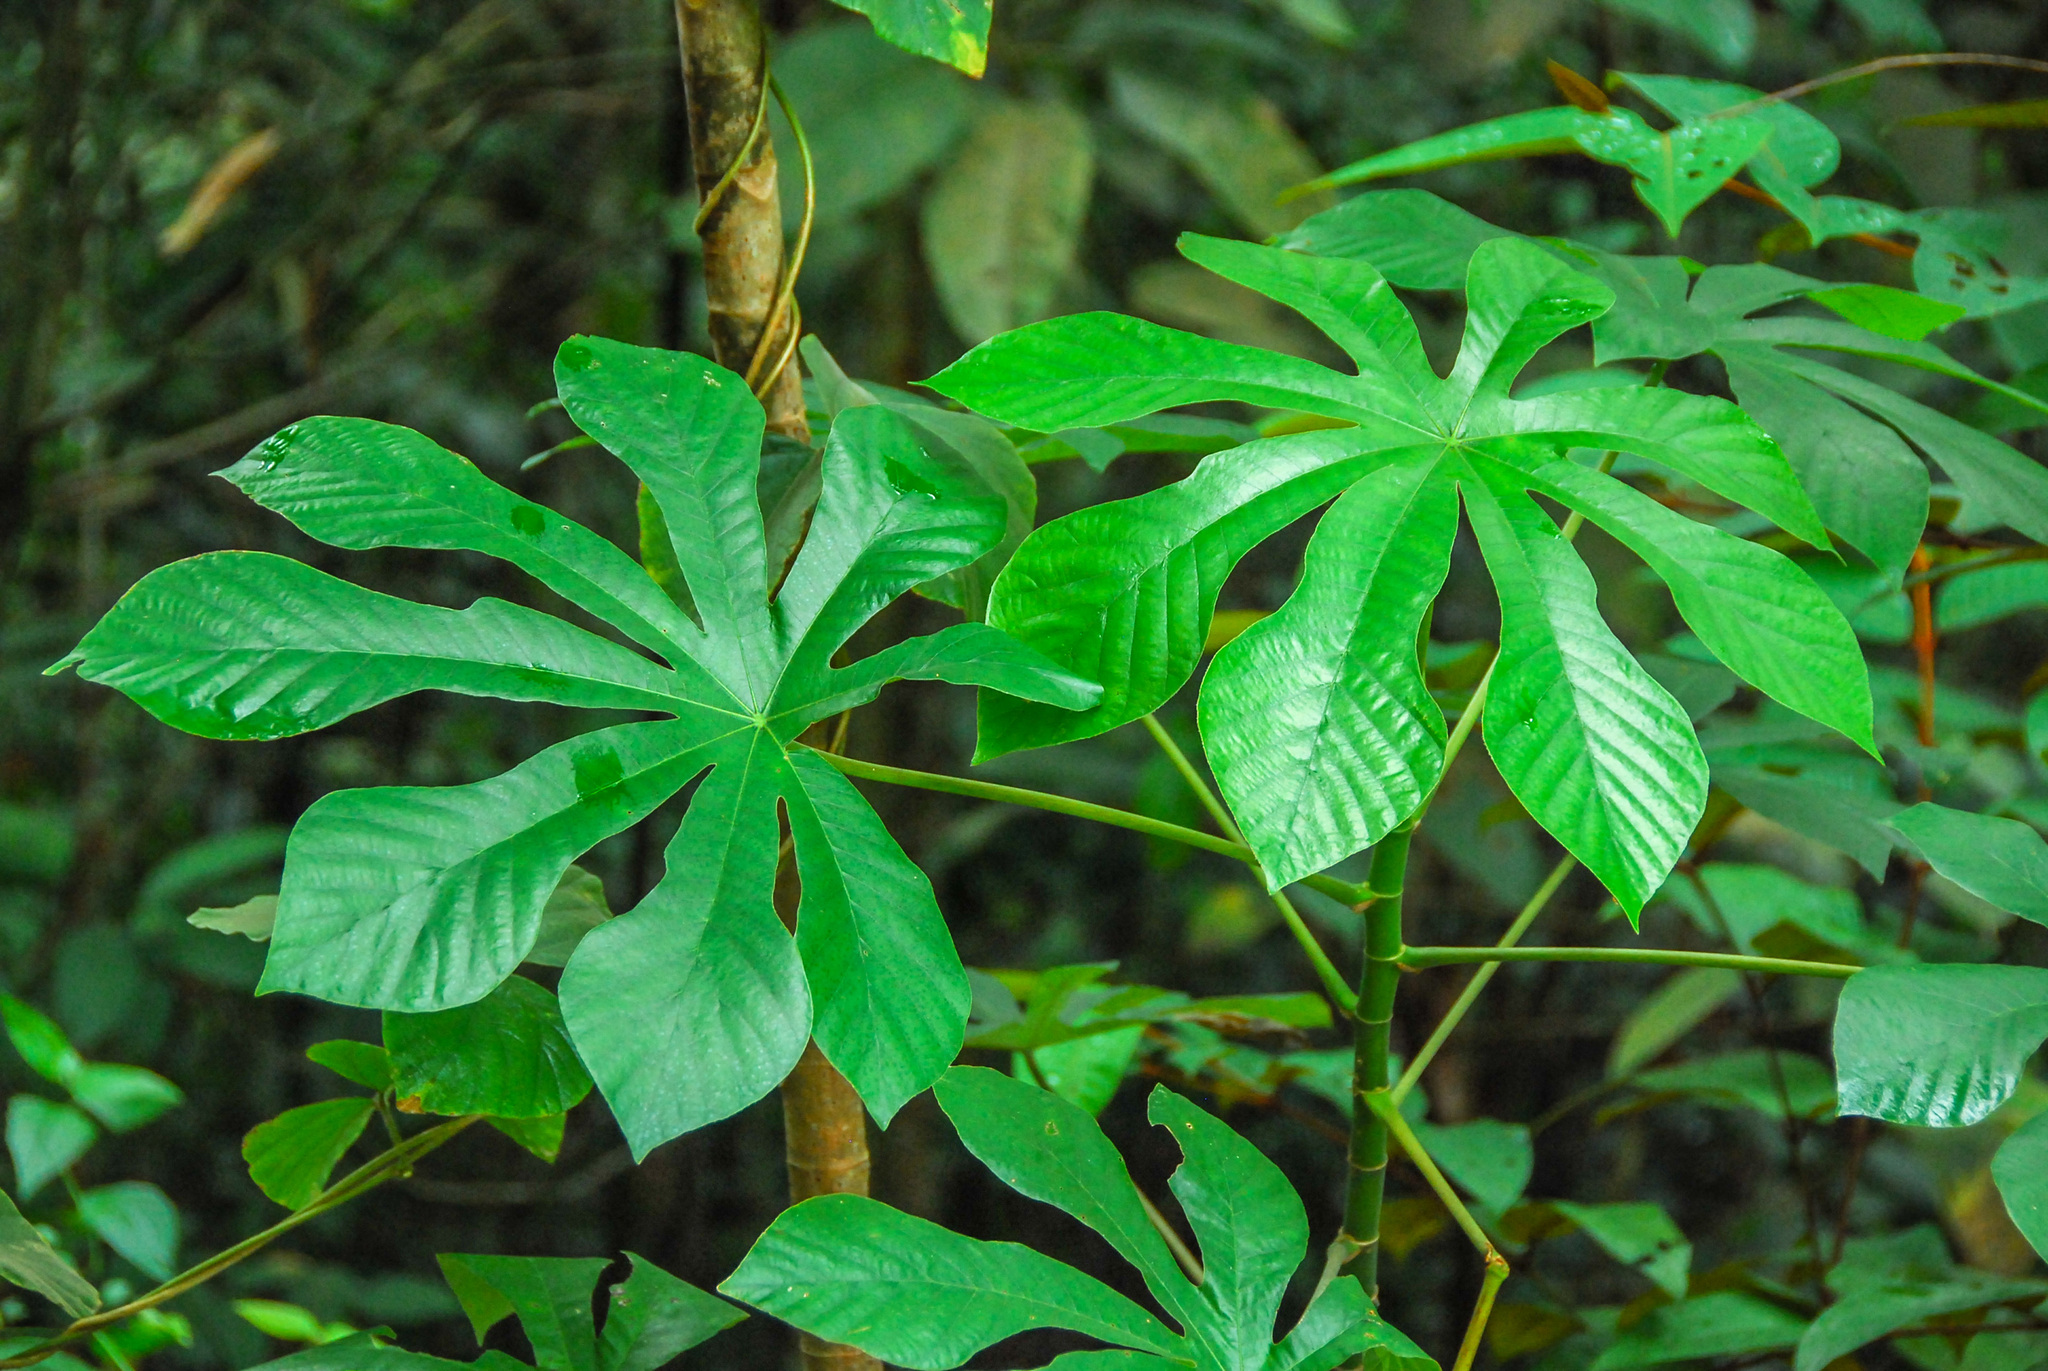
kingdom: Plantae
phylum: Tracheophyta
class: Magnoliopsida
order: Rosales
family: Urticaceae
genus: Cecropia
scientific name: Cecropia concolor
